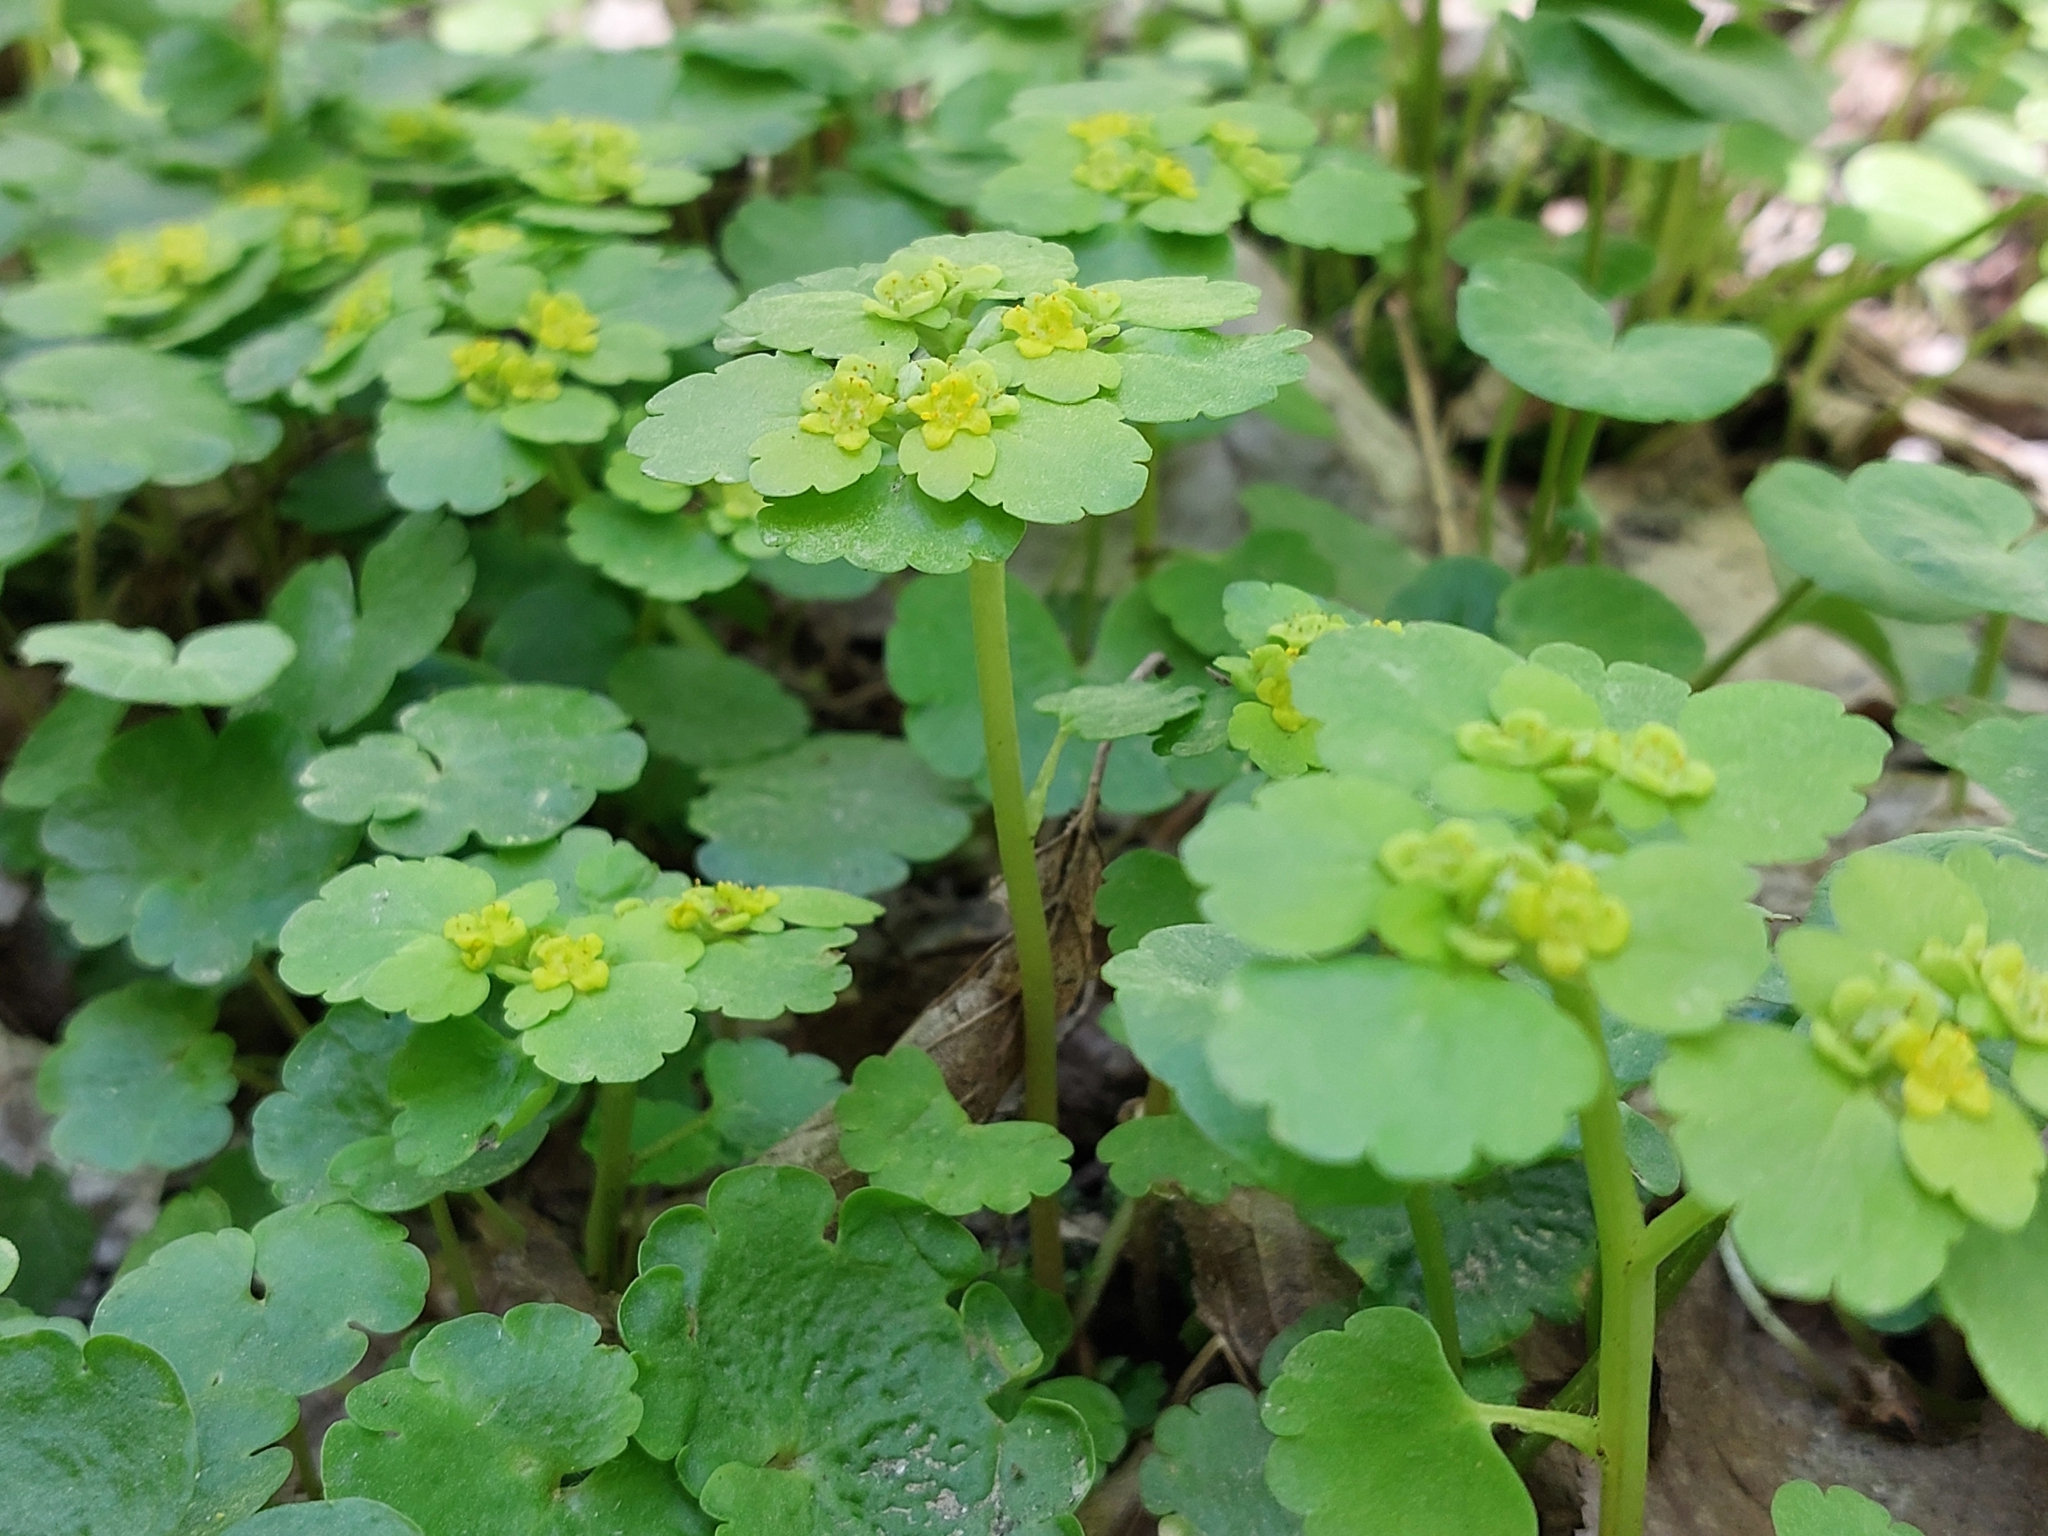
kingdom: Plantae
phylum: Tracheophyta
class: Magnoliopsida
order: Saxifragales
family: Saxifragaceae
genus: Chrysosplenium
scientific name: Chrysosplenium alternifolium
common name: Alternate-leaved golden-saxifrage
